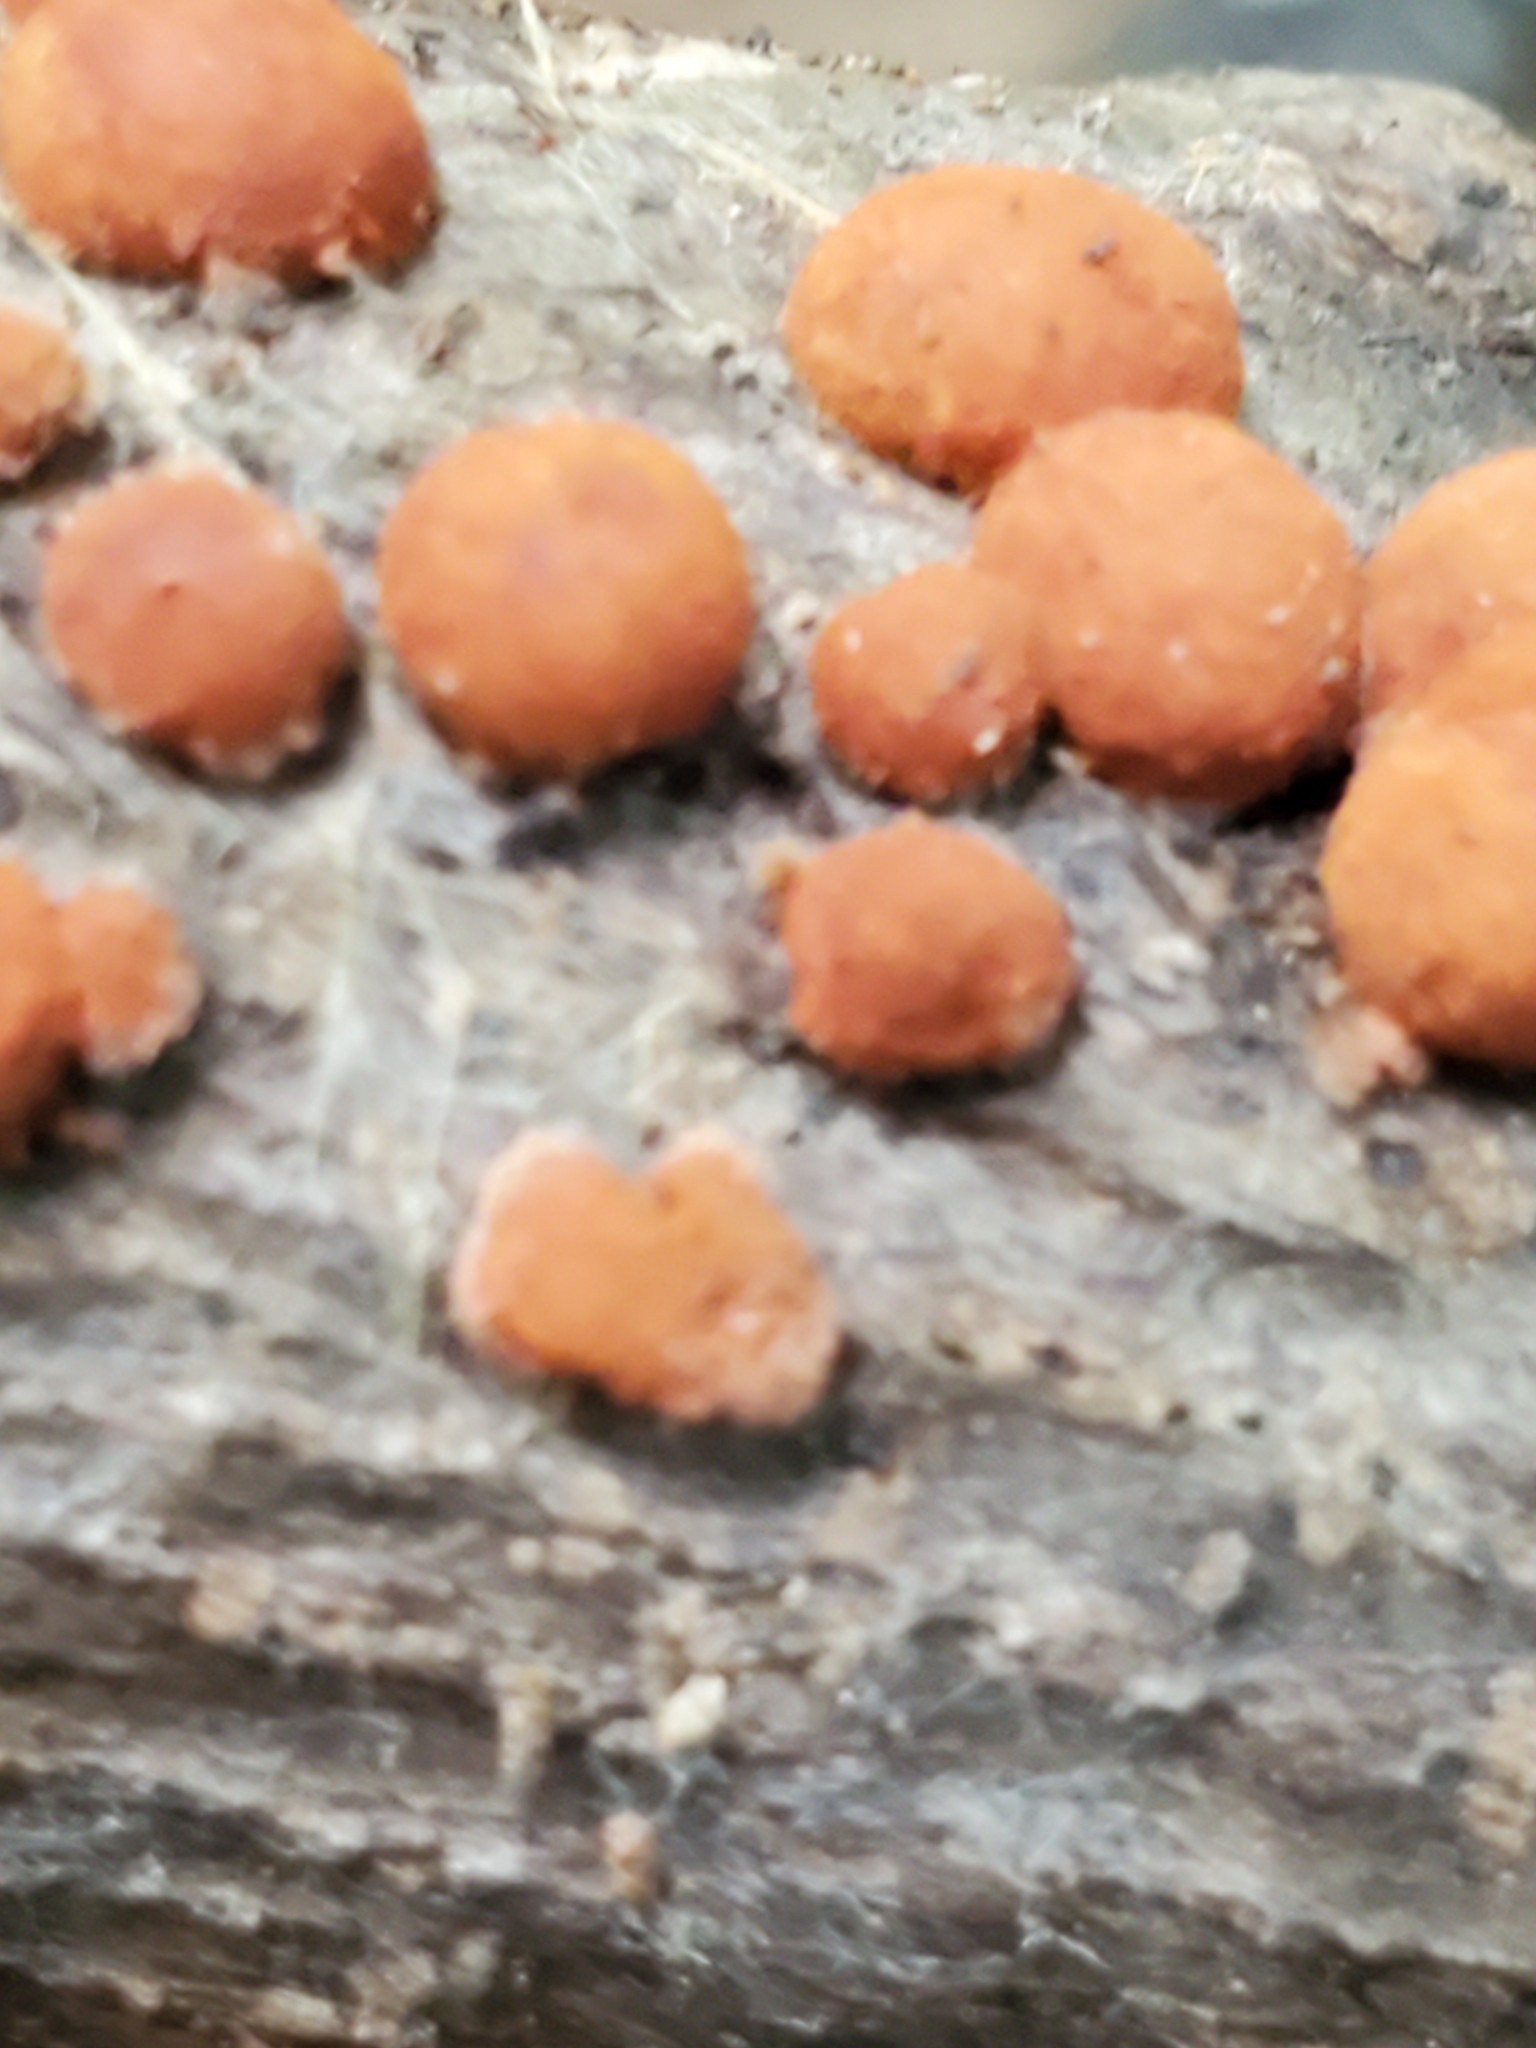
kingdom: Fungi
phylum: Ascomycota
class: Sordariomycetes
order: Xylariales
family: Hypoxylaceae
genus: Hypoxylon
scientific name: Hypoxylon howeanum
